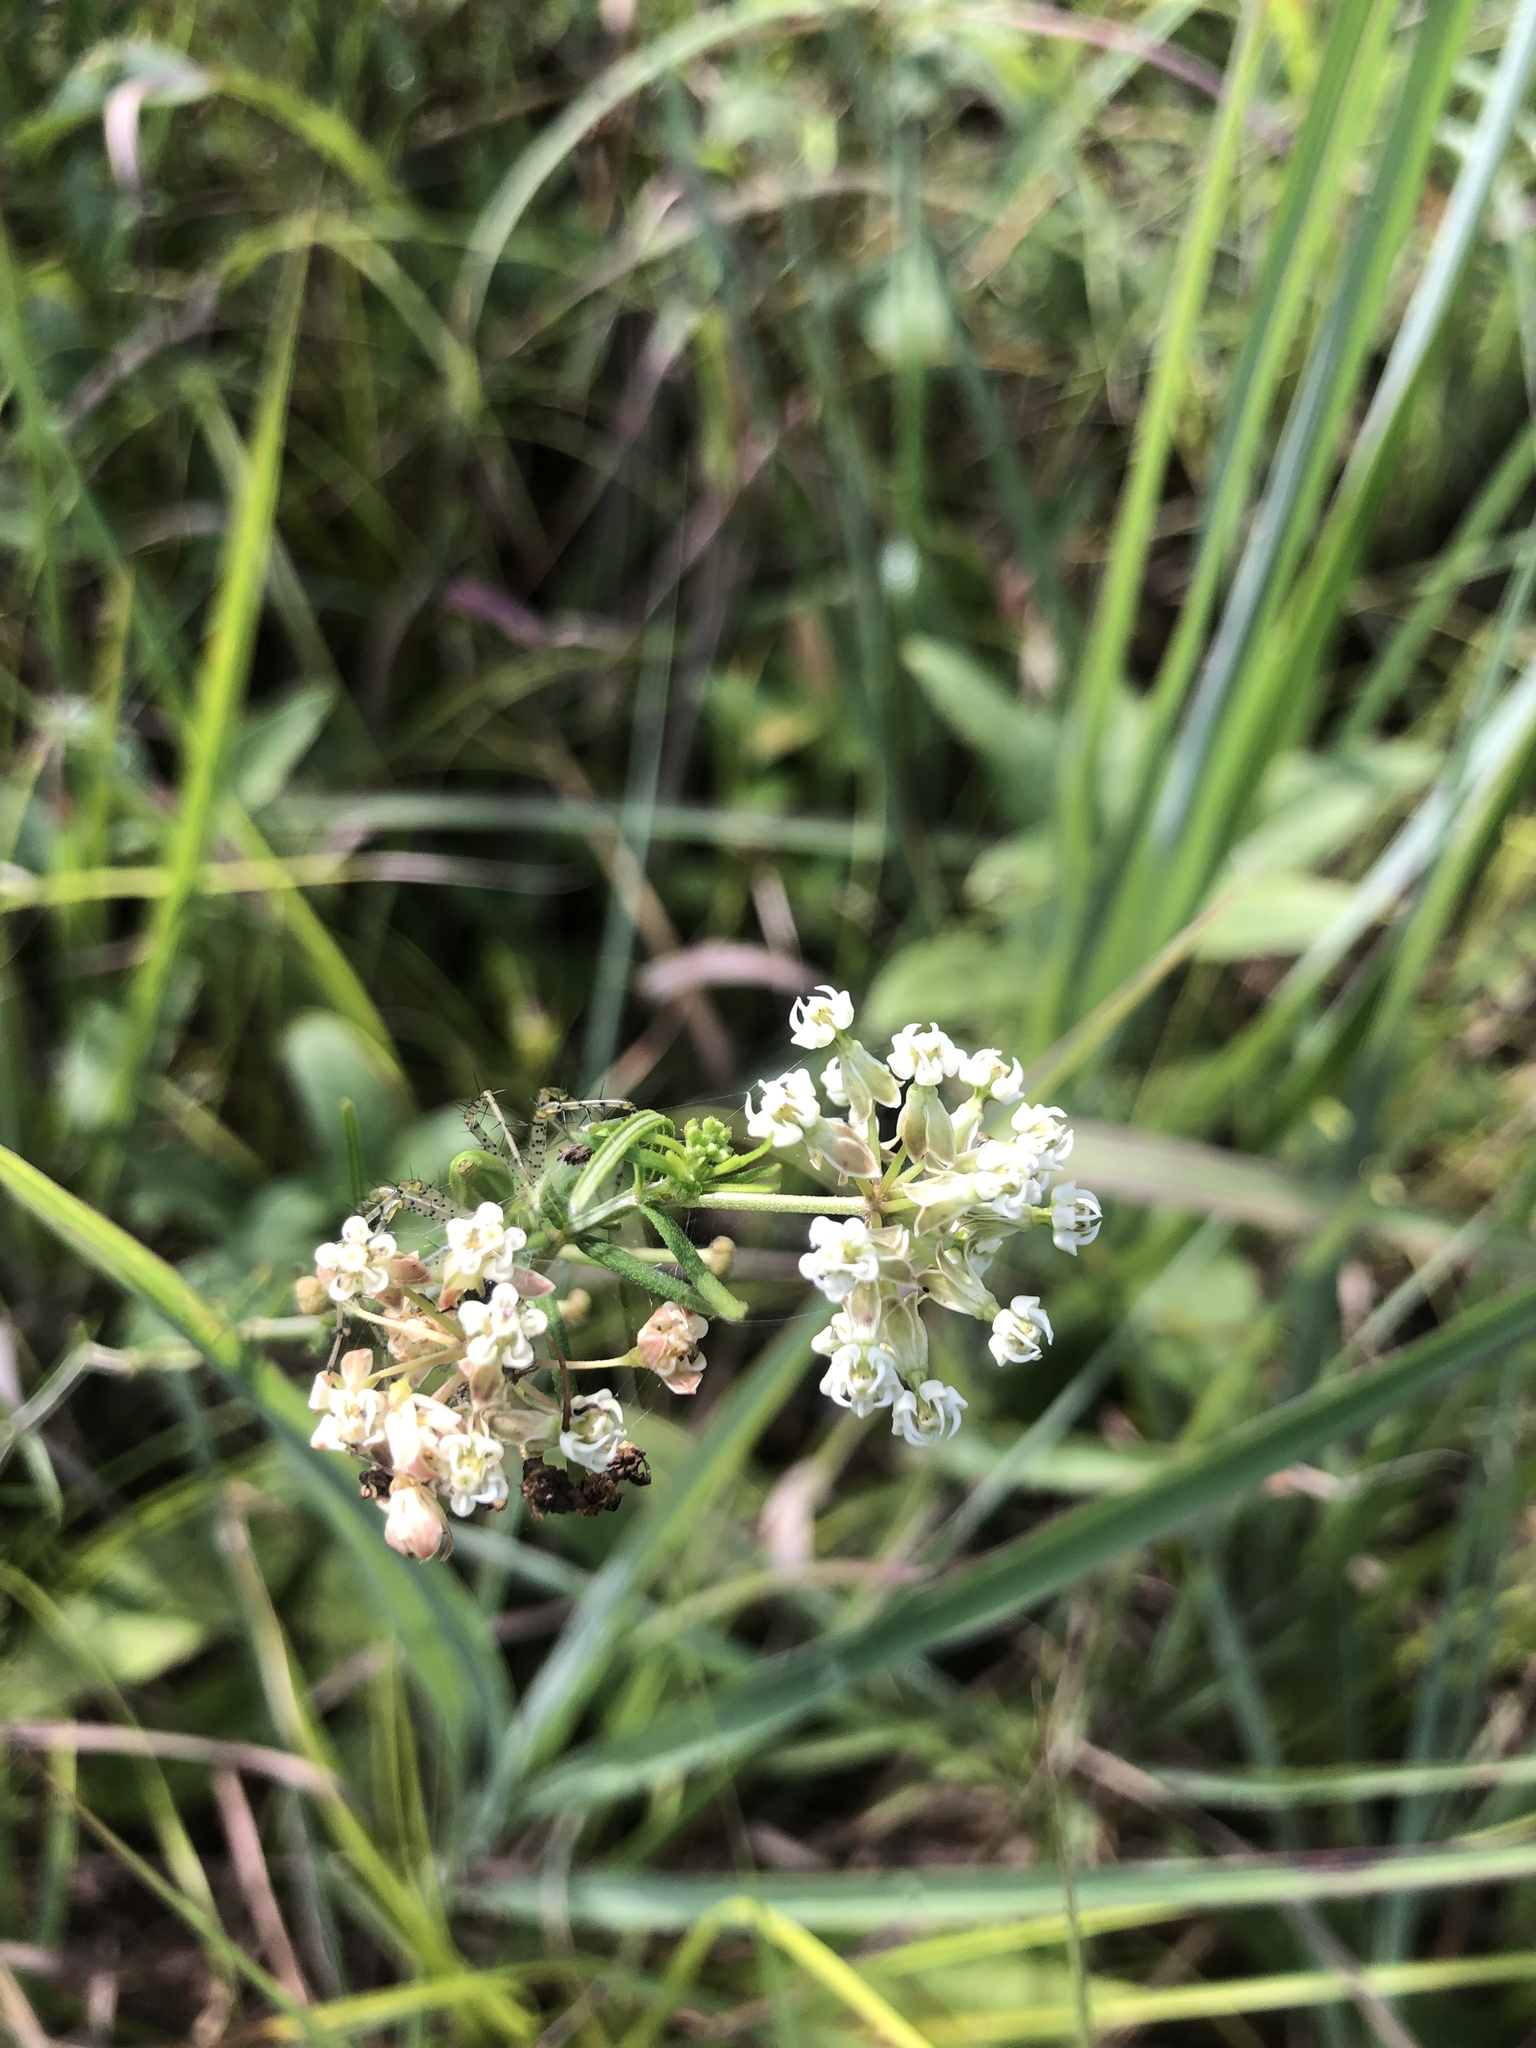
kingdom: Plantae
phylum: Tracheophyta
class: Magnoliopsida
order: Gentianales
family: Apocynaceae
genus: Asclepias
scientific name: Asclepias verticillata
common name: Eastern whorled milkweed
